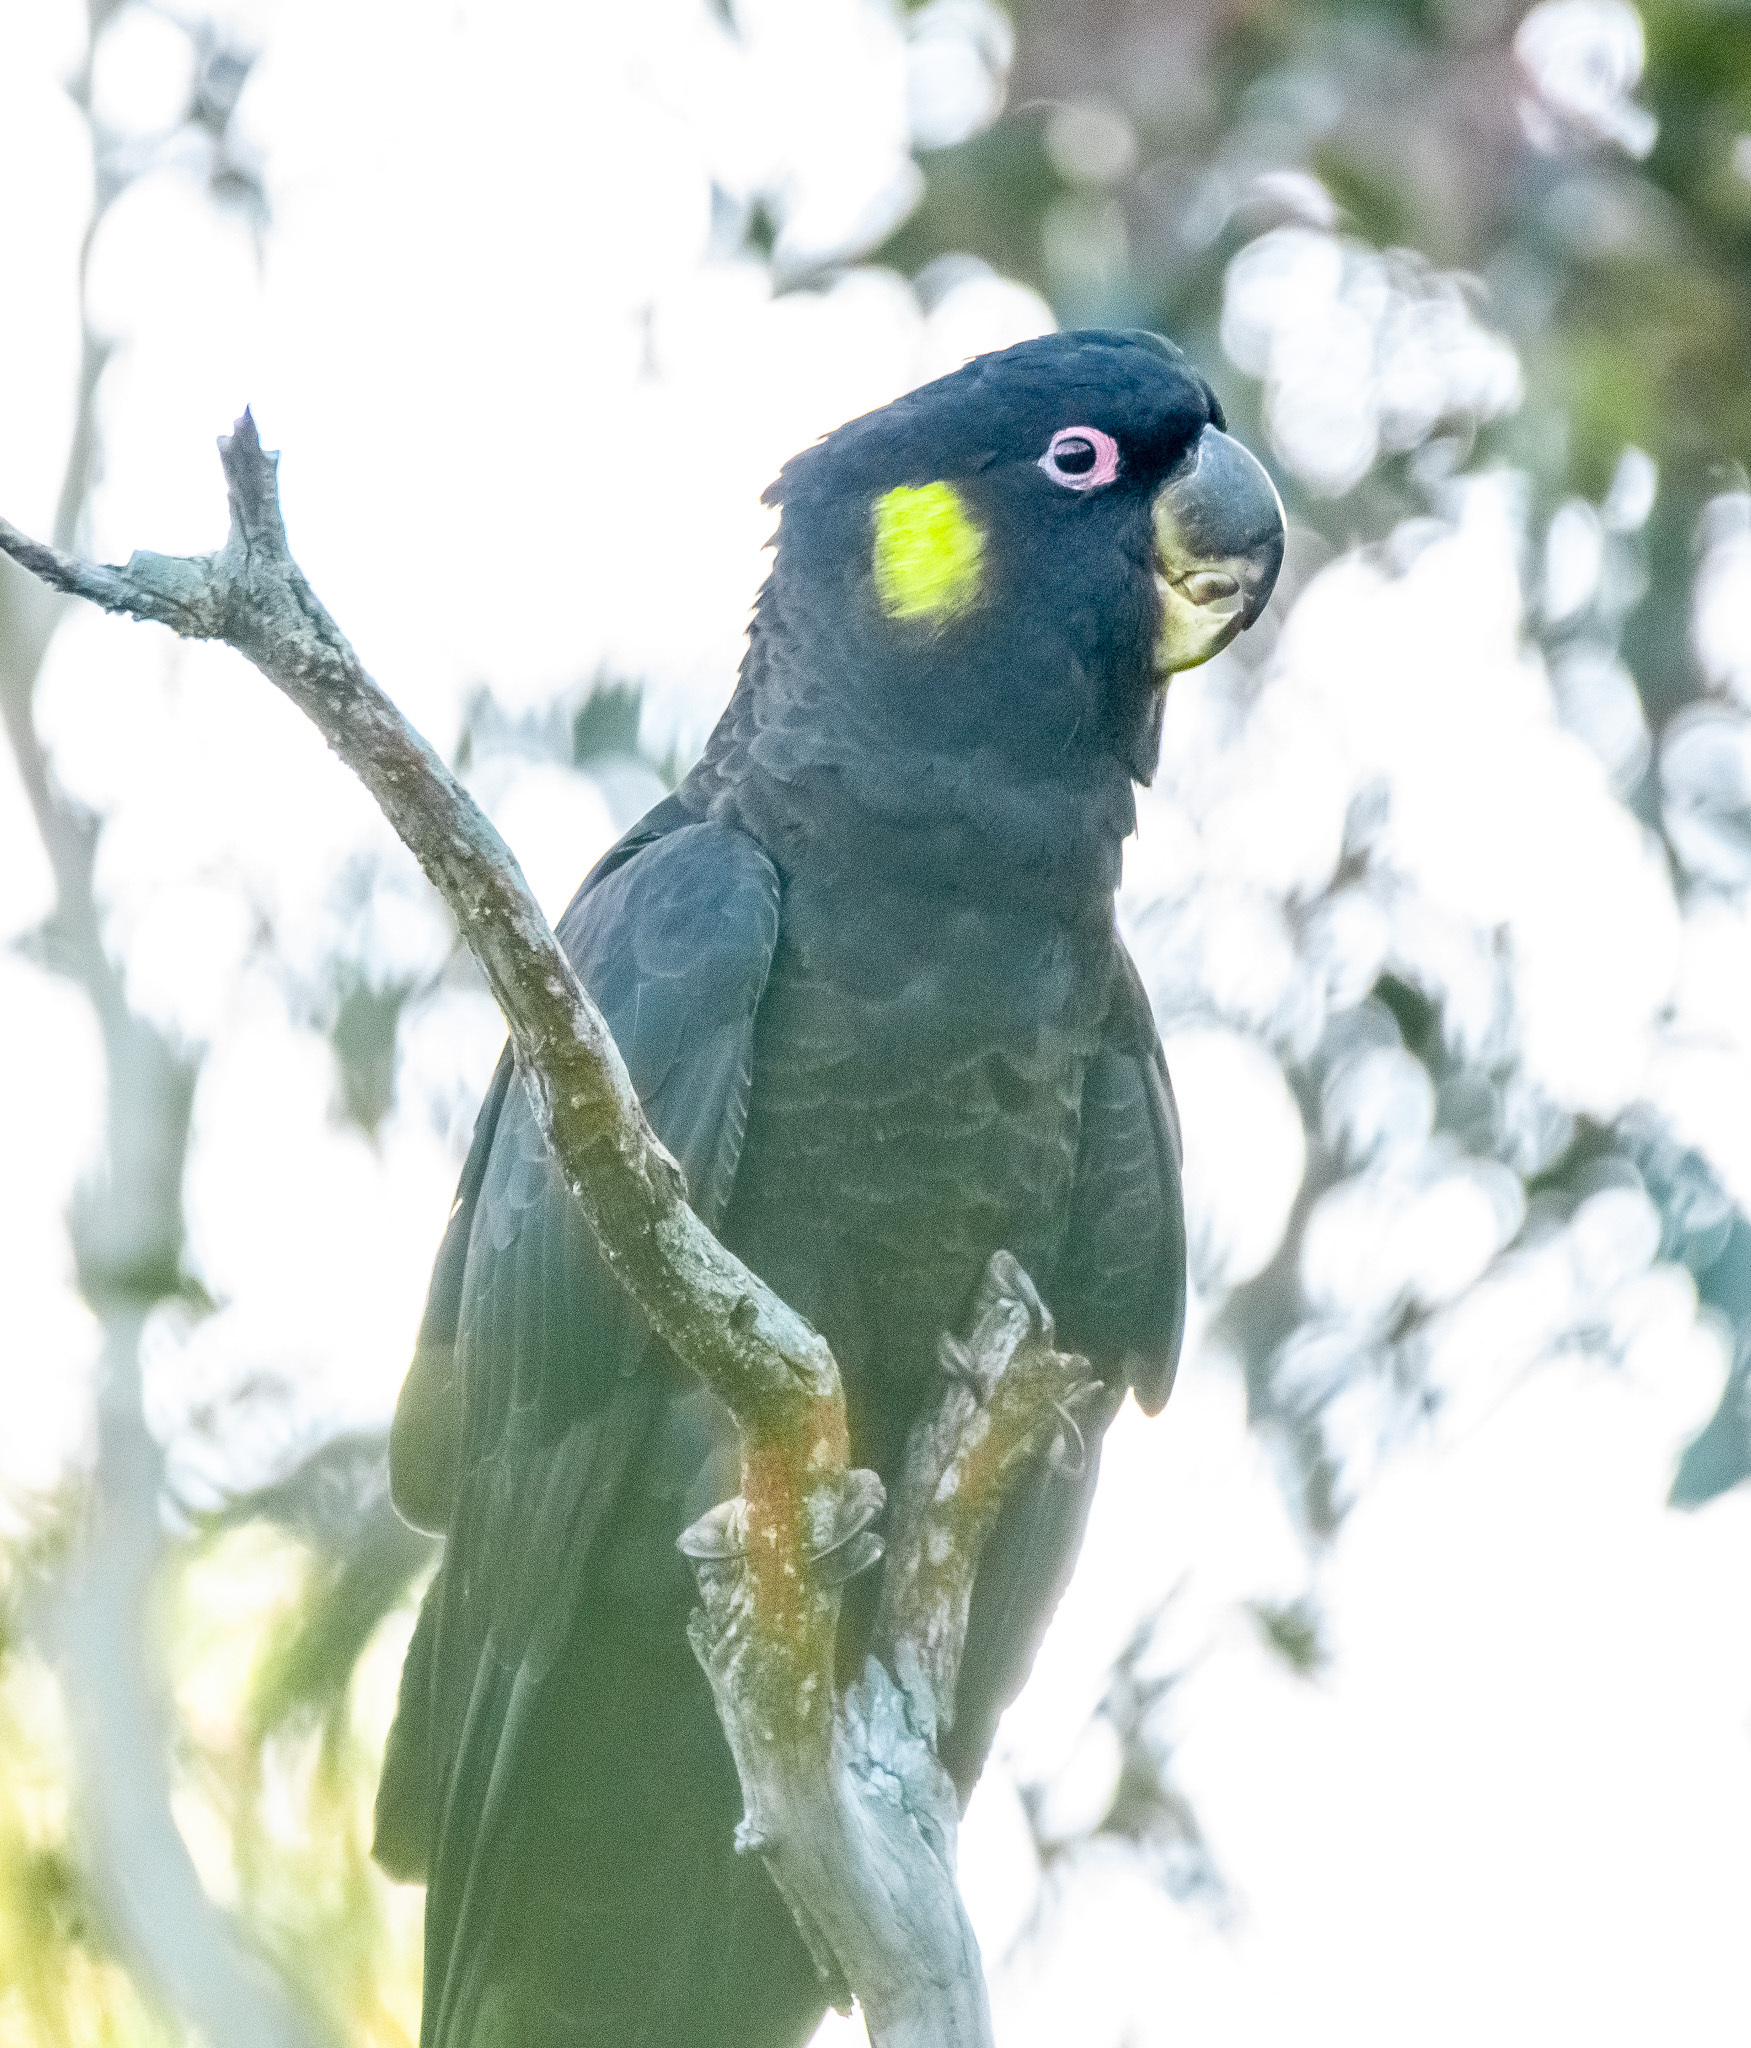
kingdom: Animalia
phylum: Chordata
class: Aves
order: Psittaciformes
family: Cacatuidae
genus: Zanda
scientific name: Zanda funerea
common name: Yellow-tailed black-cockatoo
